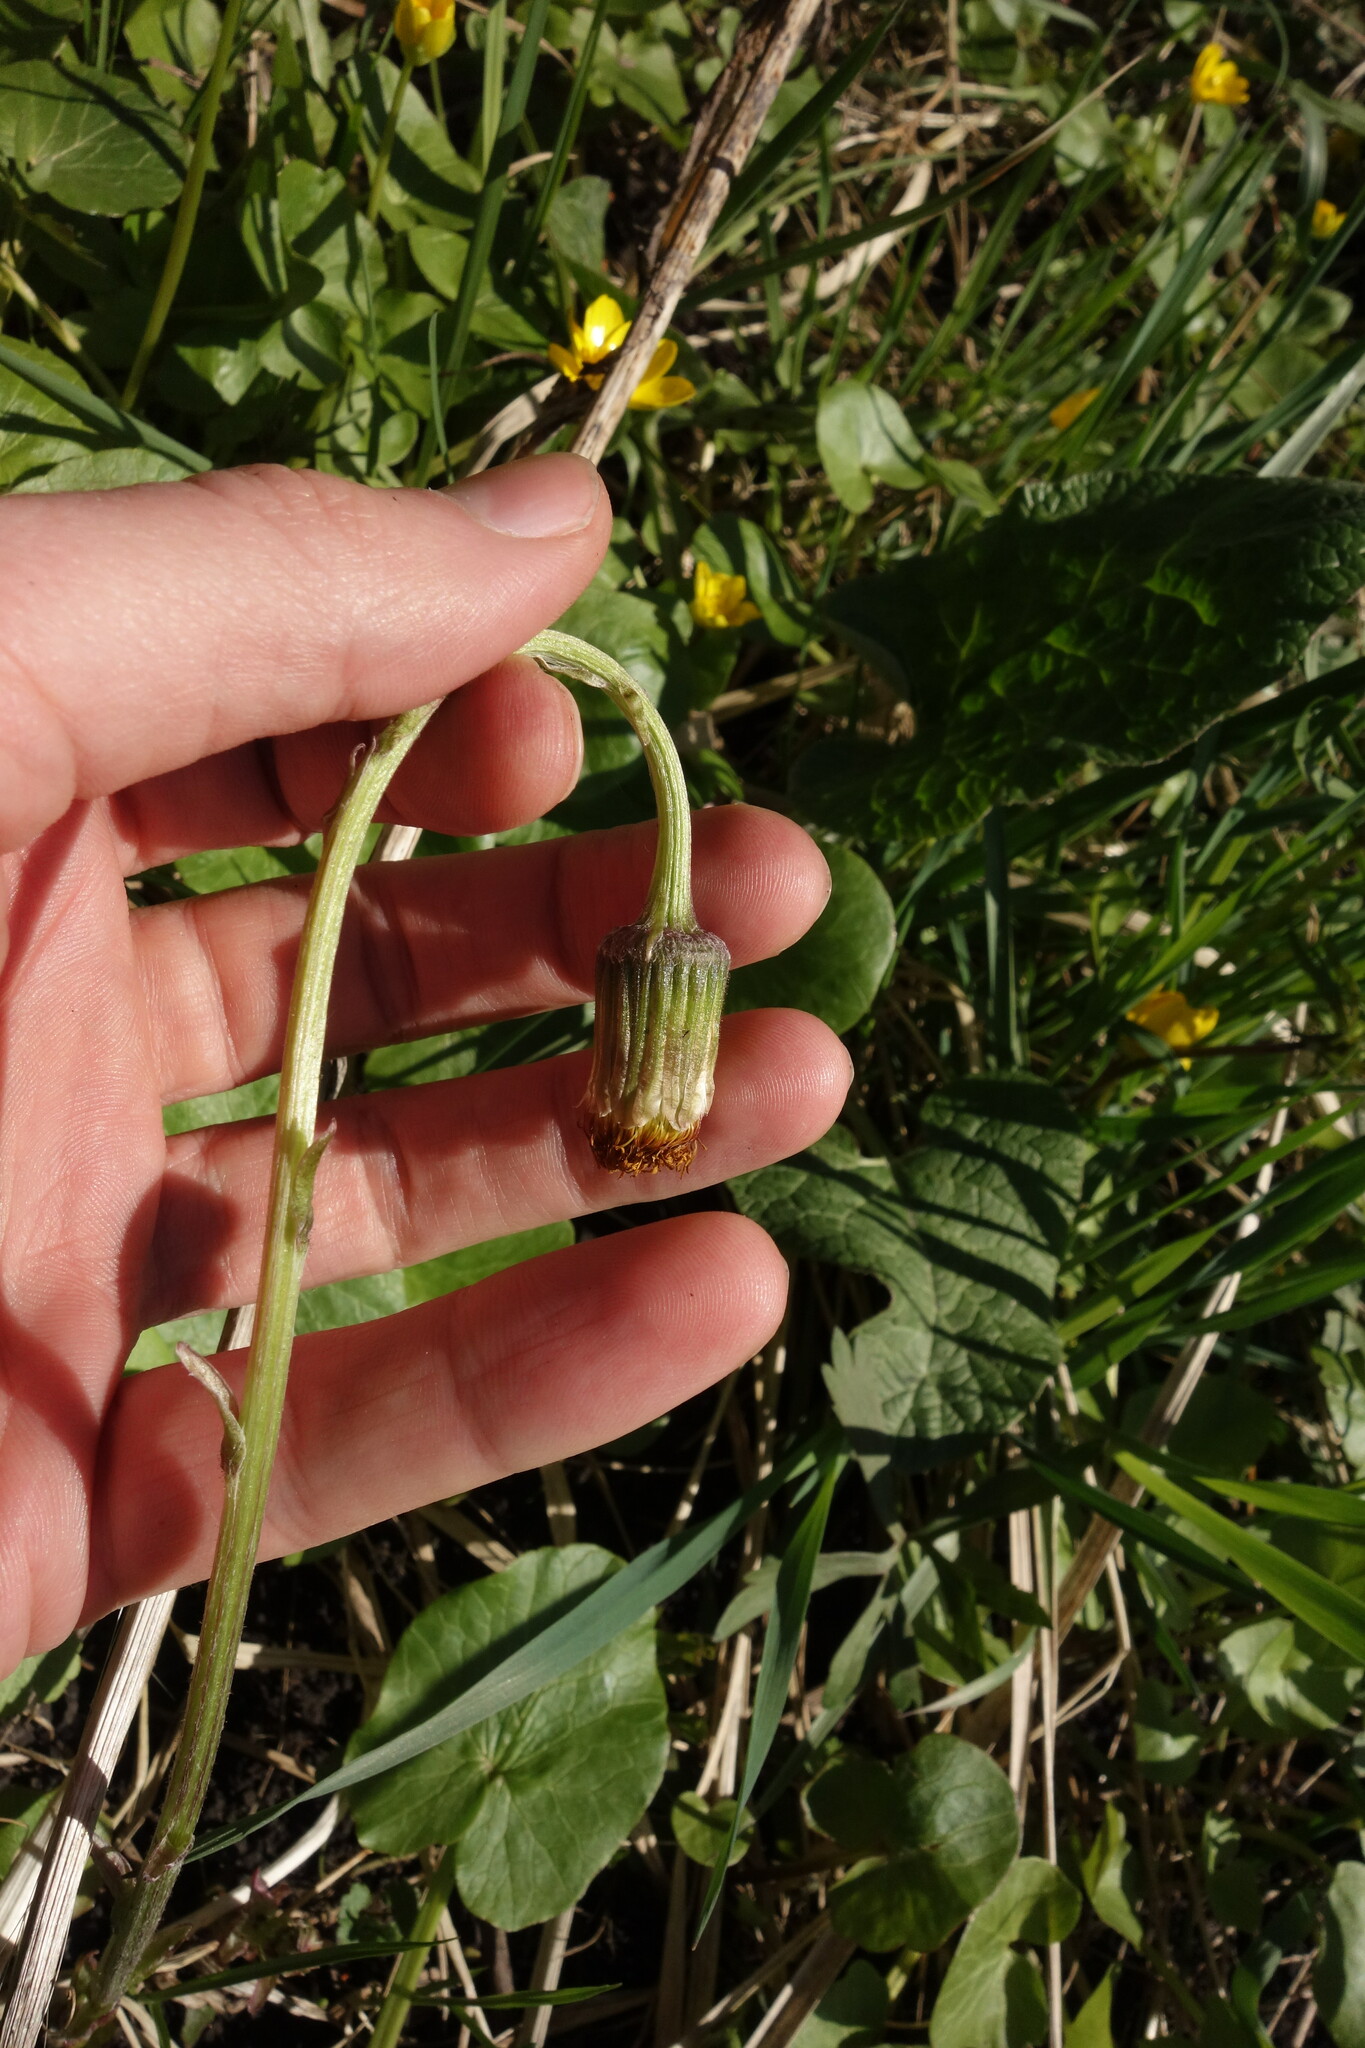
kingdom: Plantae
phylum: Tracheophyta
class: Magnoliopsida
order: Asterales
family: Asteraceae
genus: Tussilago
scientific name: Tussilago farfara
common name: Coltsfoot
